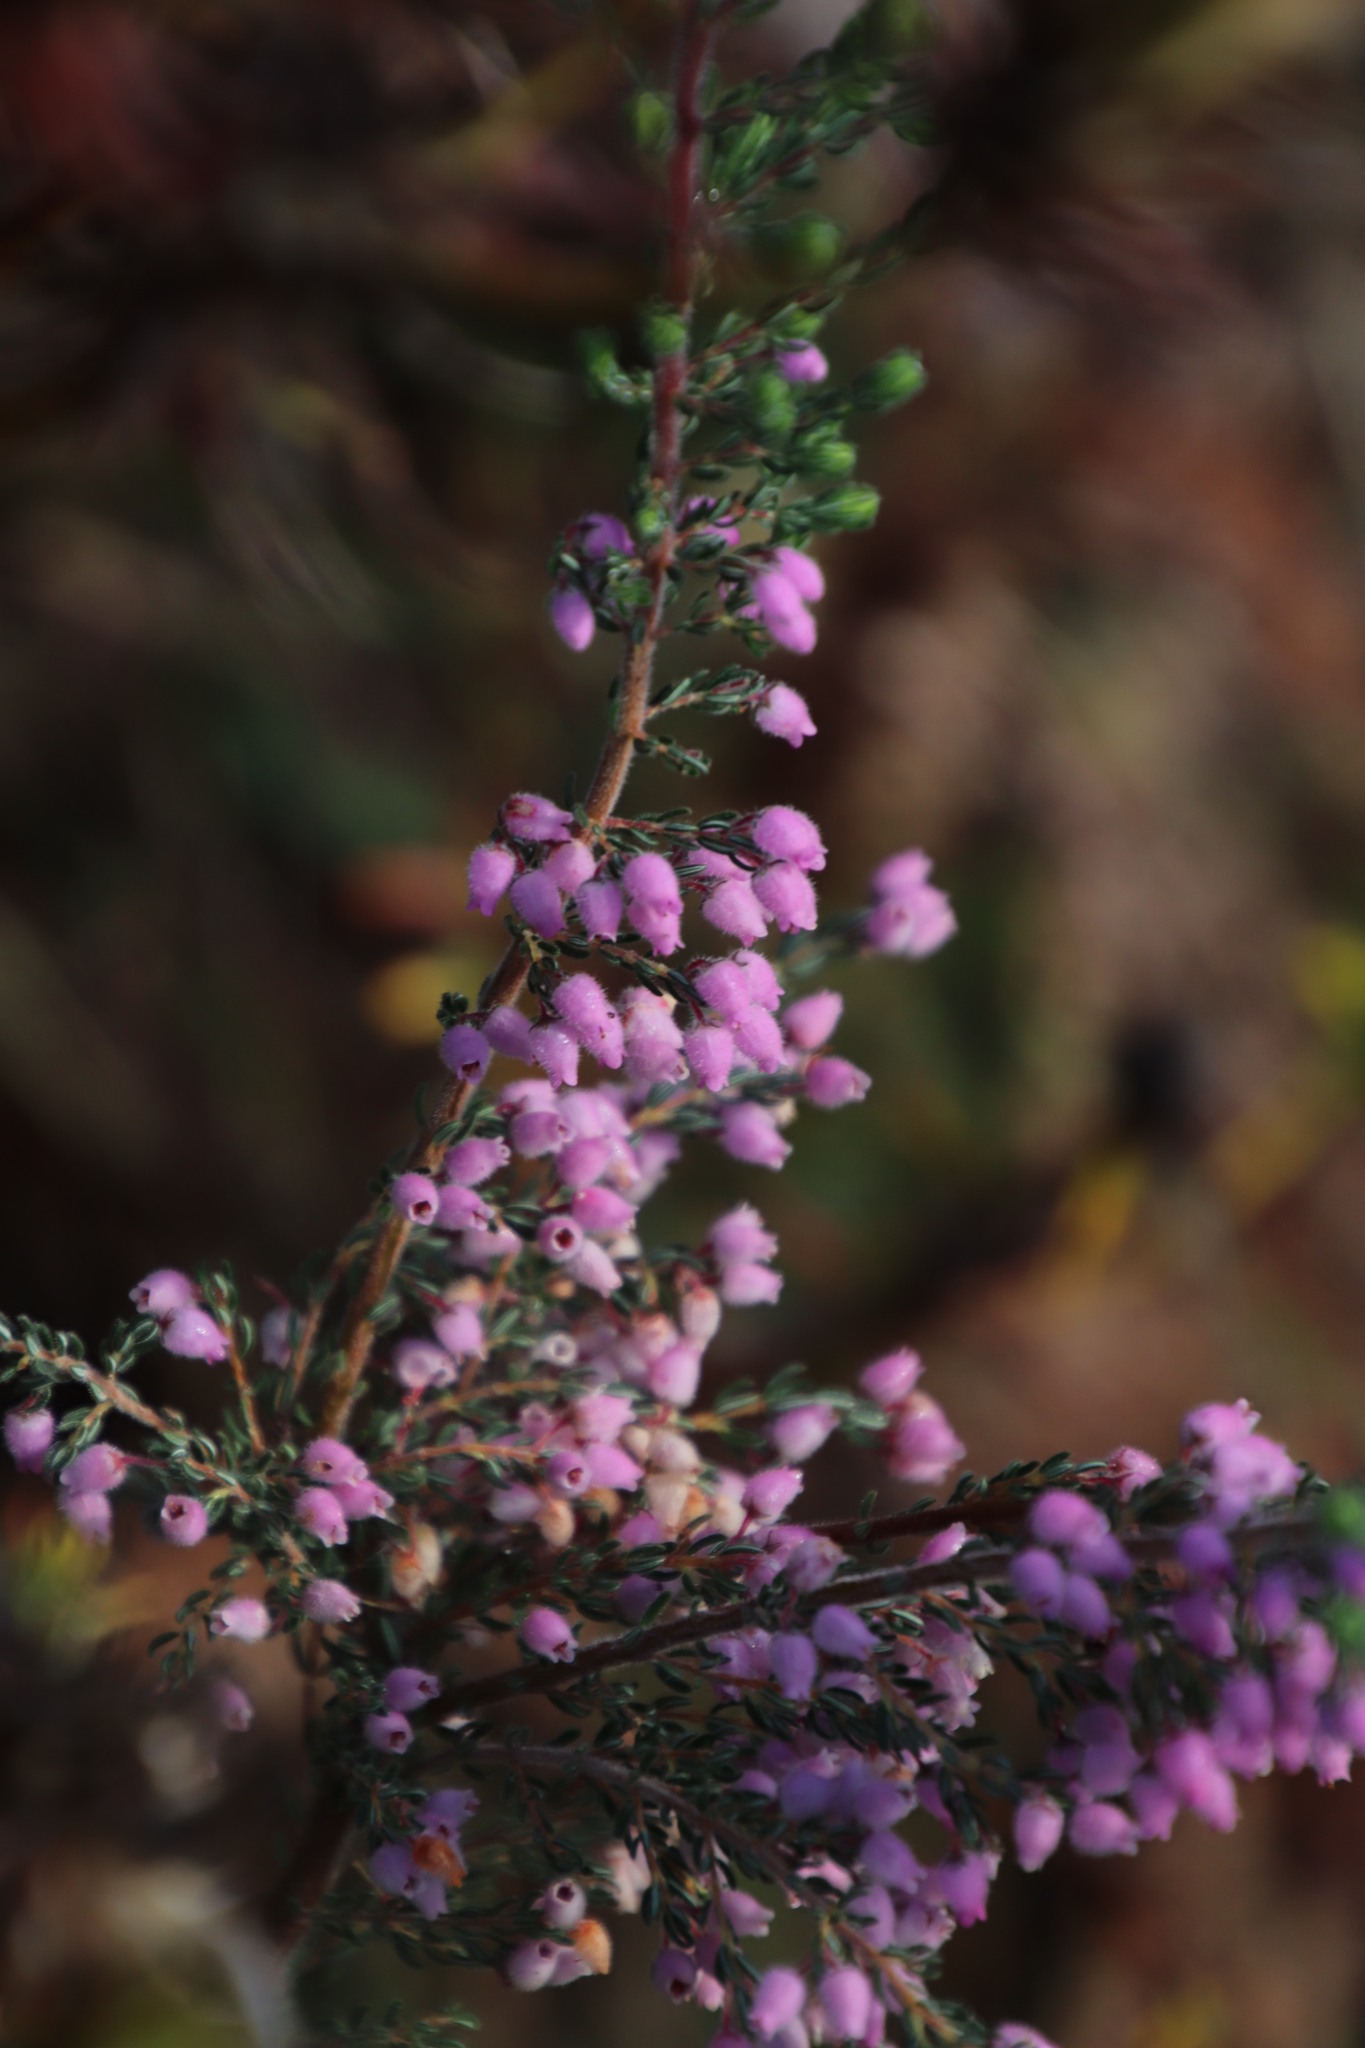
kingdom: Plantae
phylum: Tracheophyta
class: Magnoliopsida
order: Ericales
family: Ericaceae
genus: Erica
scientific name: Erica hirtiflora
